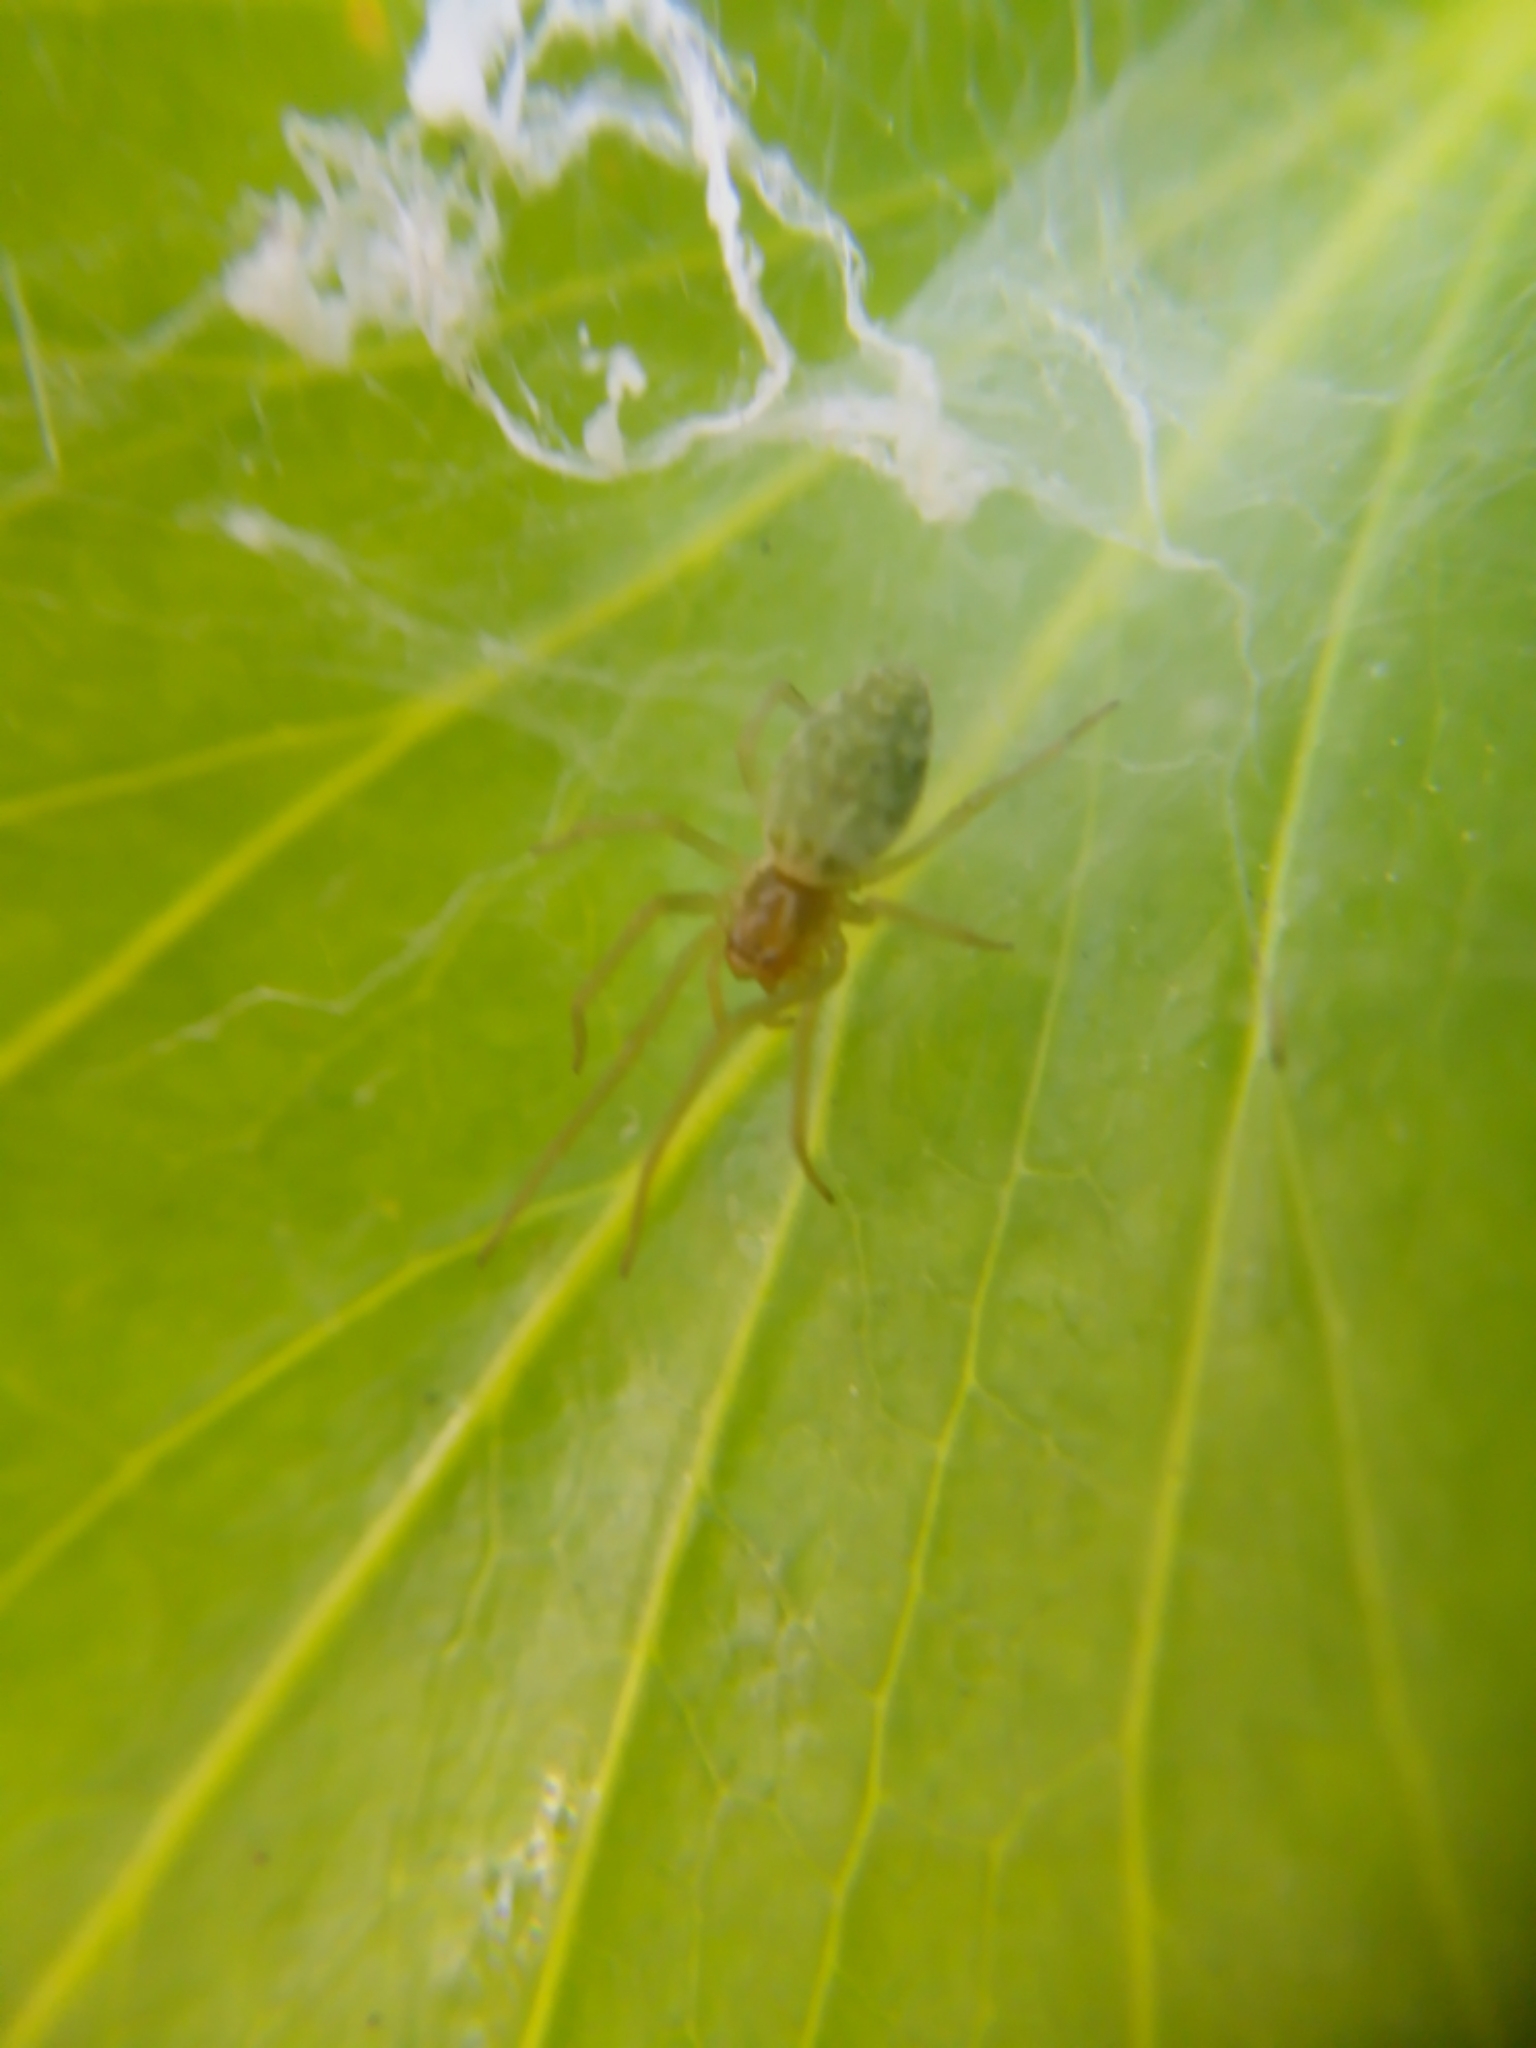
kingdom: Animalia
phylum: Arthropoda
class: Arachnida
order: Araneae
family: Dictynidae
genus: Nigma
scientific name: Nigma walckenaeri
